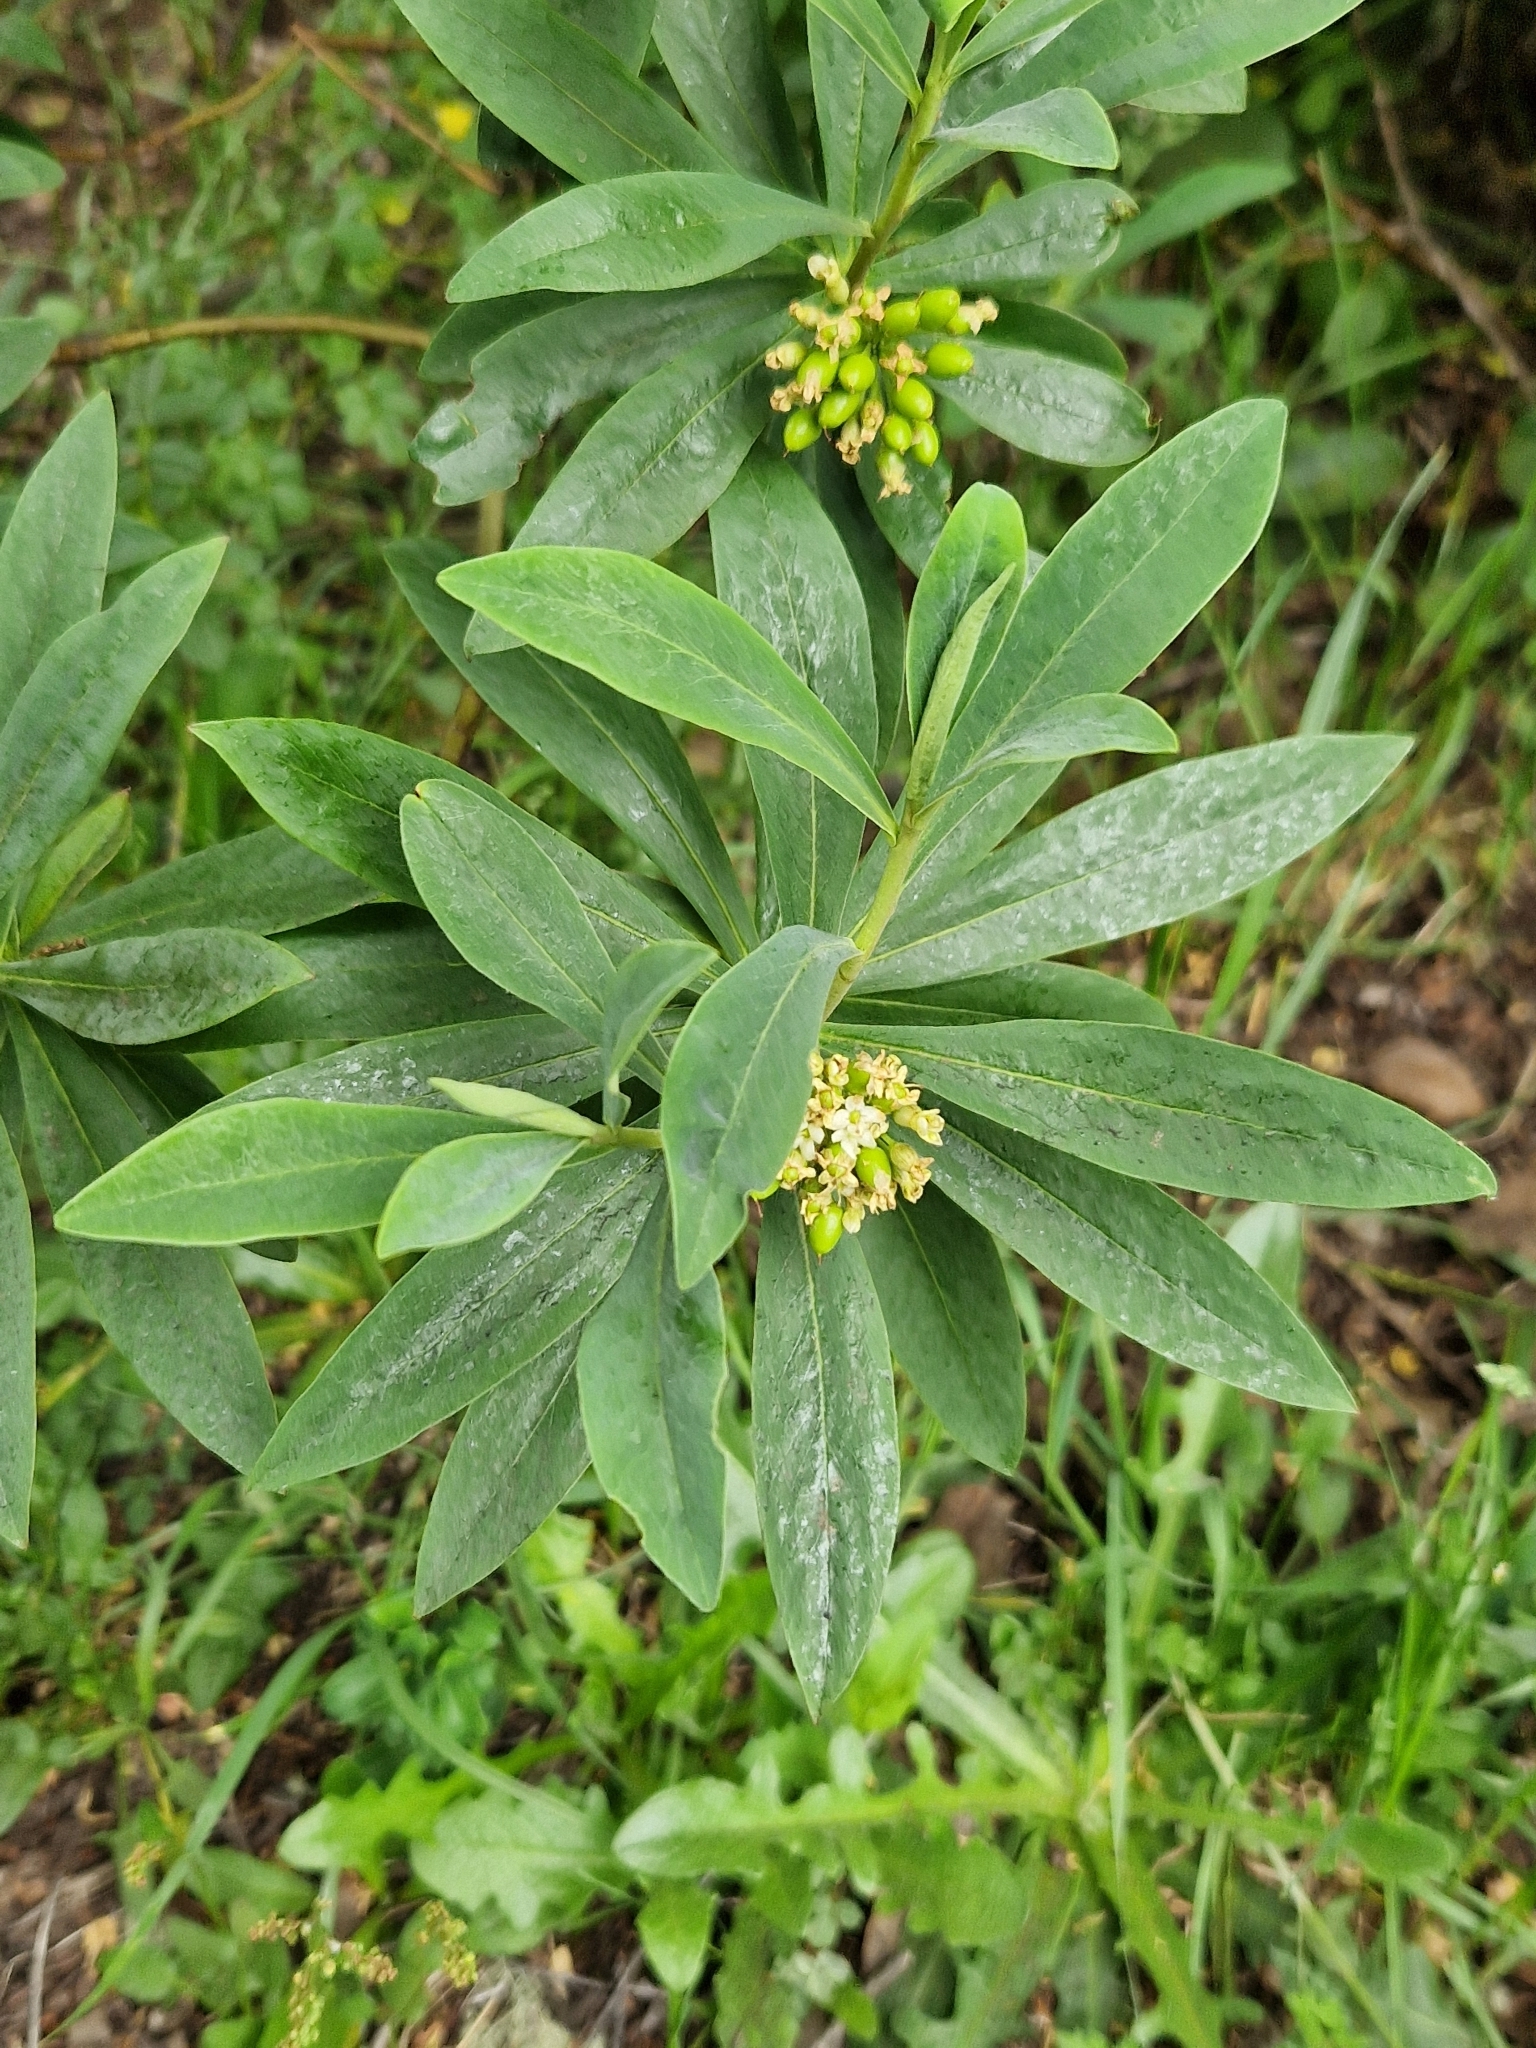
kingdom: Plantae
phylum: Tracheophyta
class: Magnoliopsida
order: Malvales
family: Thymelaeaceae
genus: Ovidia
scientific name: Ovidia andina
